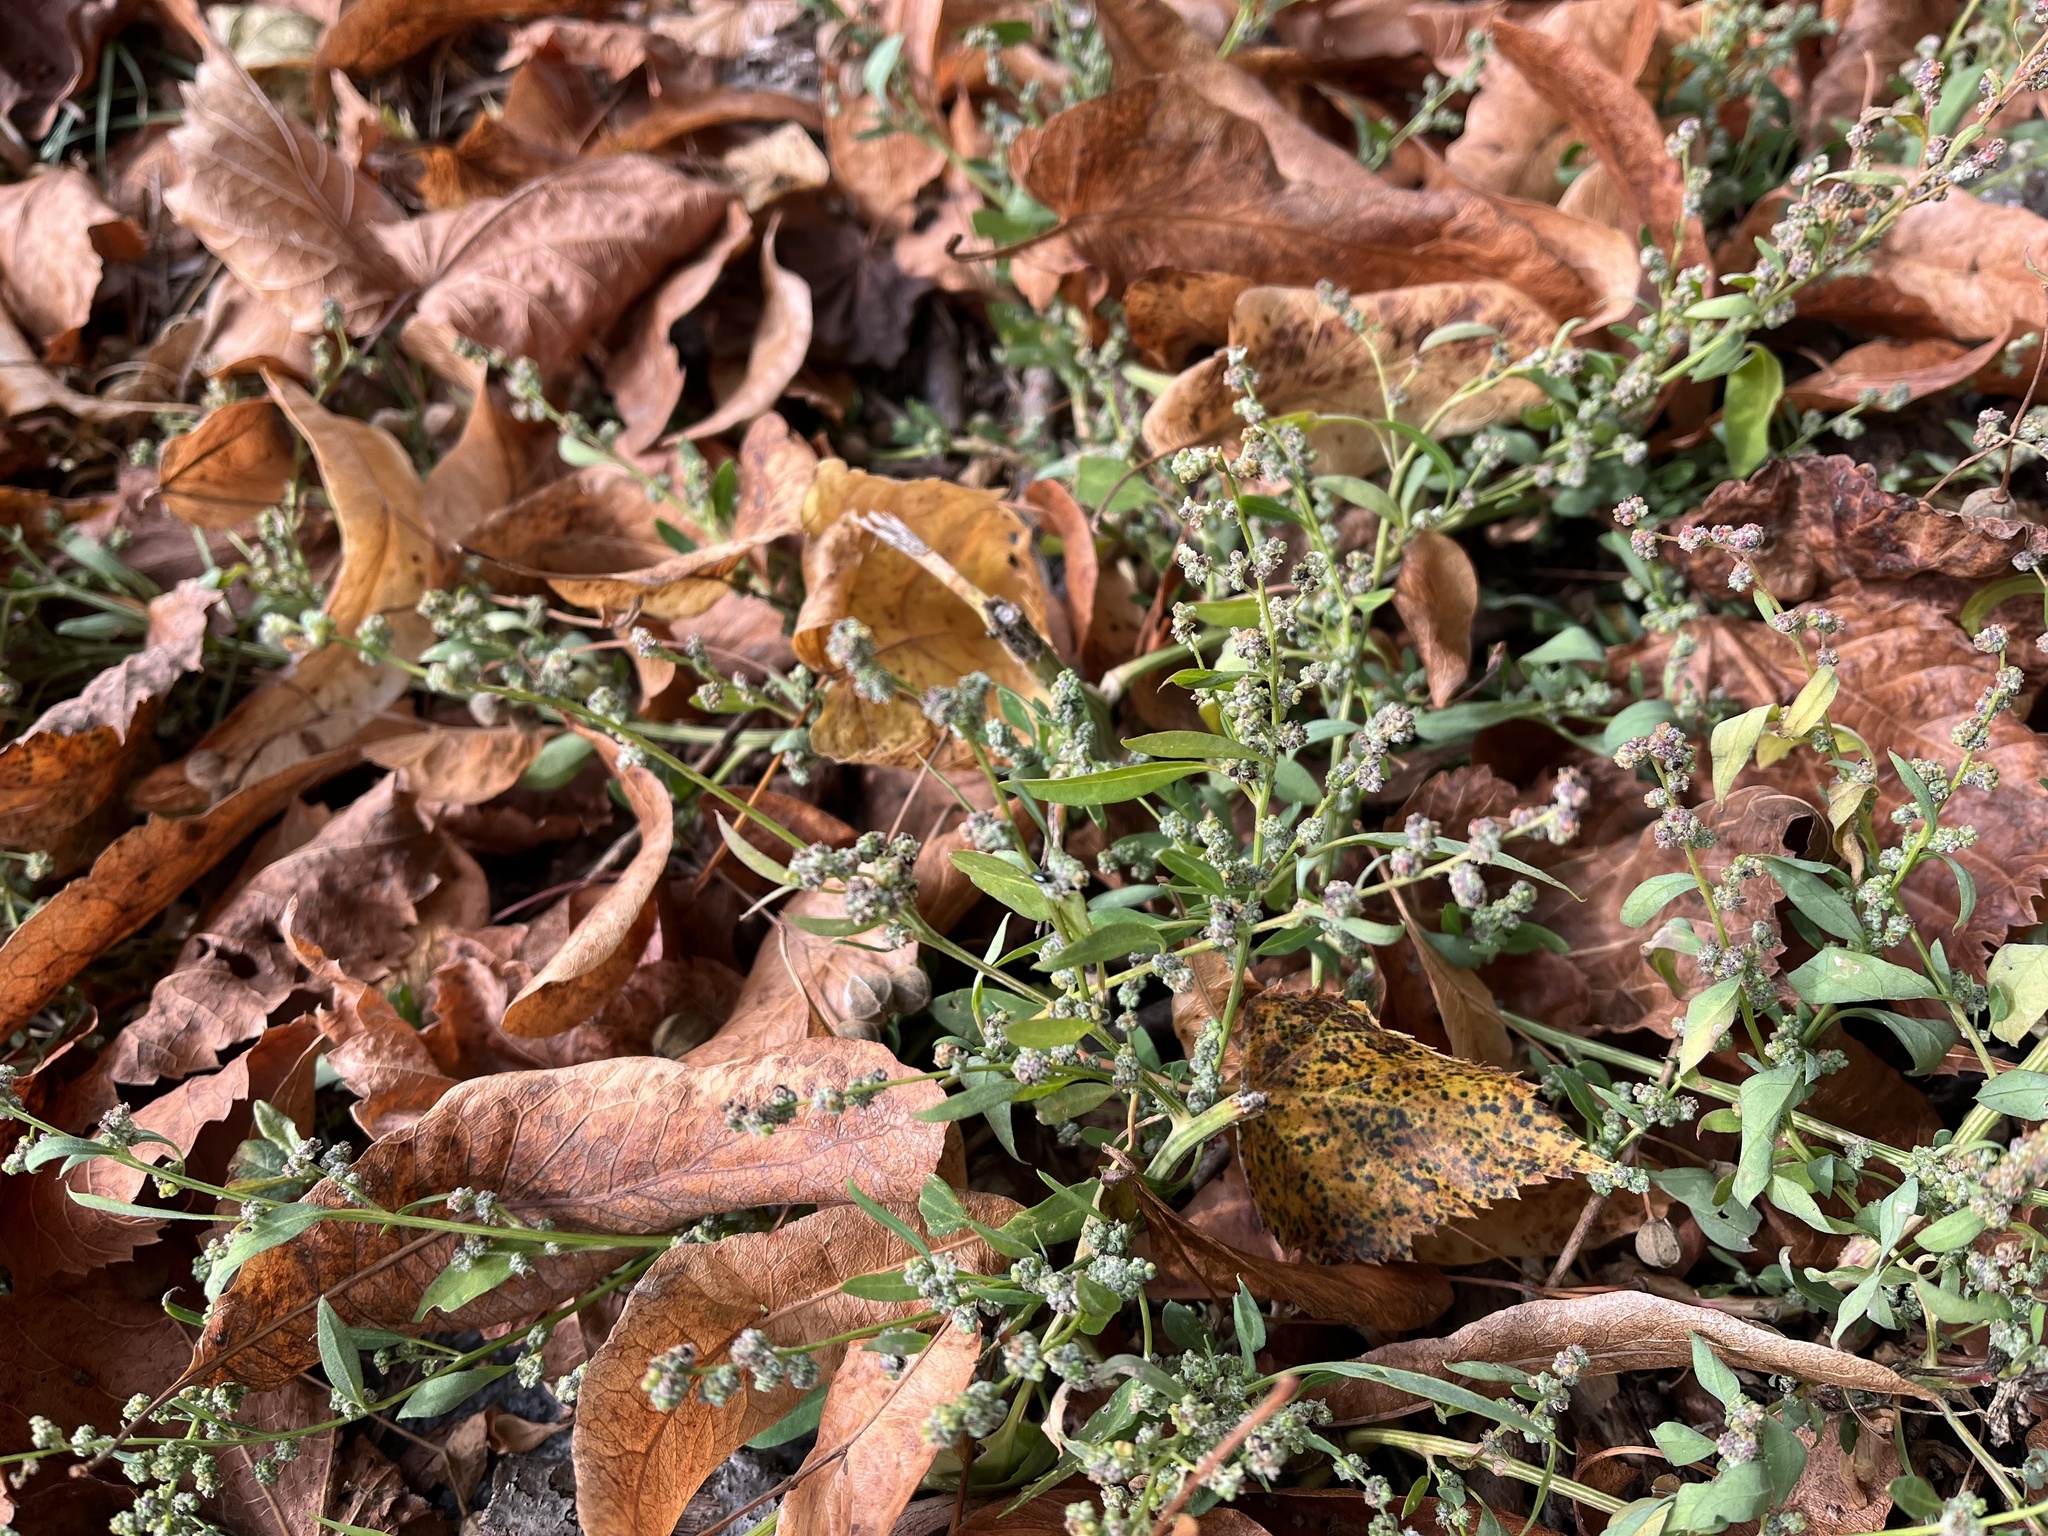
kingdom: Plantae
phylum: Tracheophyta
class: Magnoliopsida
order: Caryophyllales
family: Amaranthaceae
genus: Chenopodium
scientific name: Chenopodium album
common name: Fat-hen
